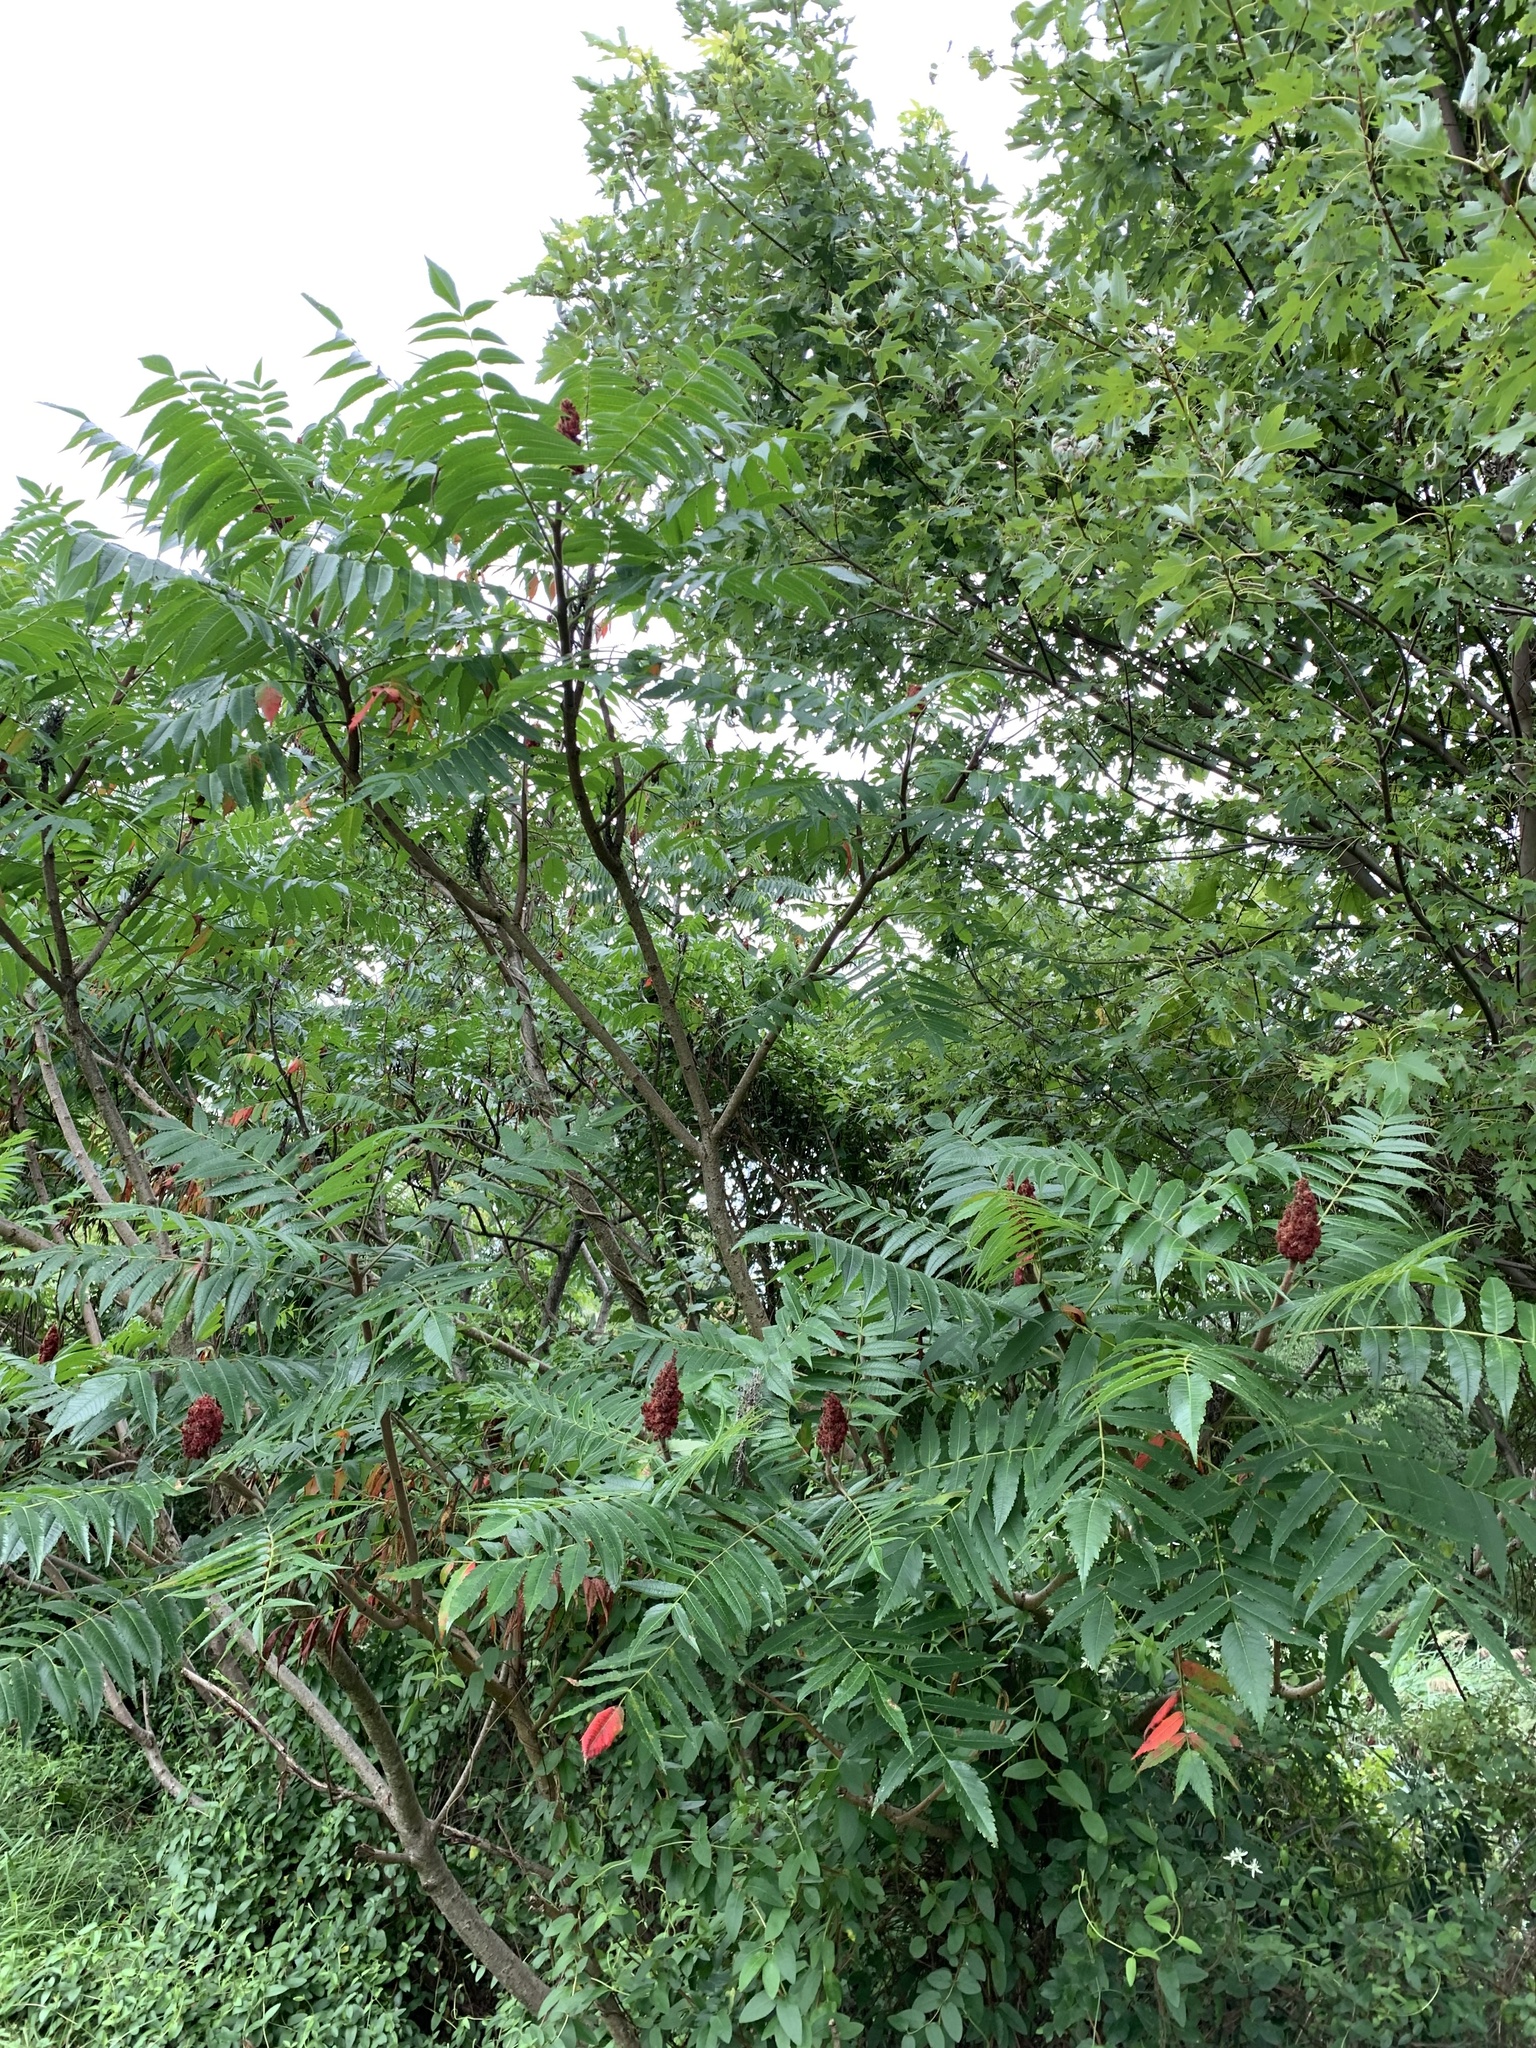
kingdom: Plantae
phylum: Tracheophyta
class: Magnoliopsida
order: Sapindales
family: Anacardiaceae
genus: Rhus
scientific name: Rhus typhina
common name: Staghorn sumac
